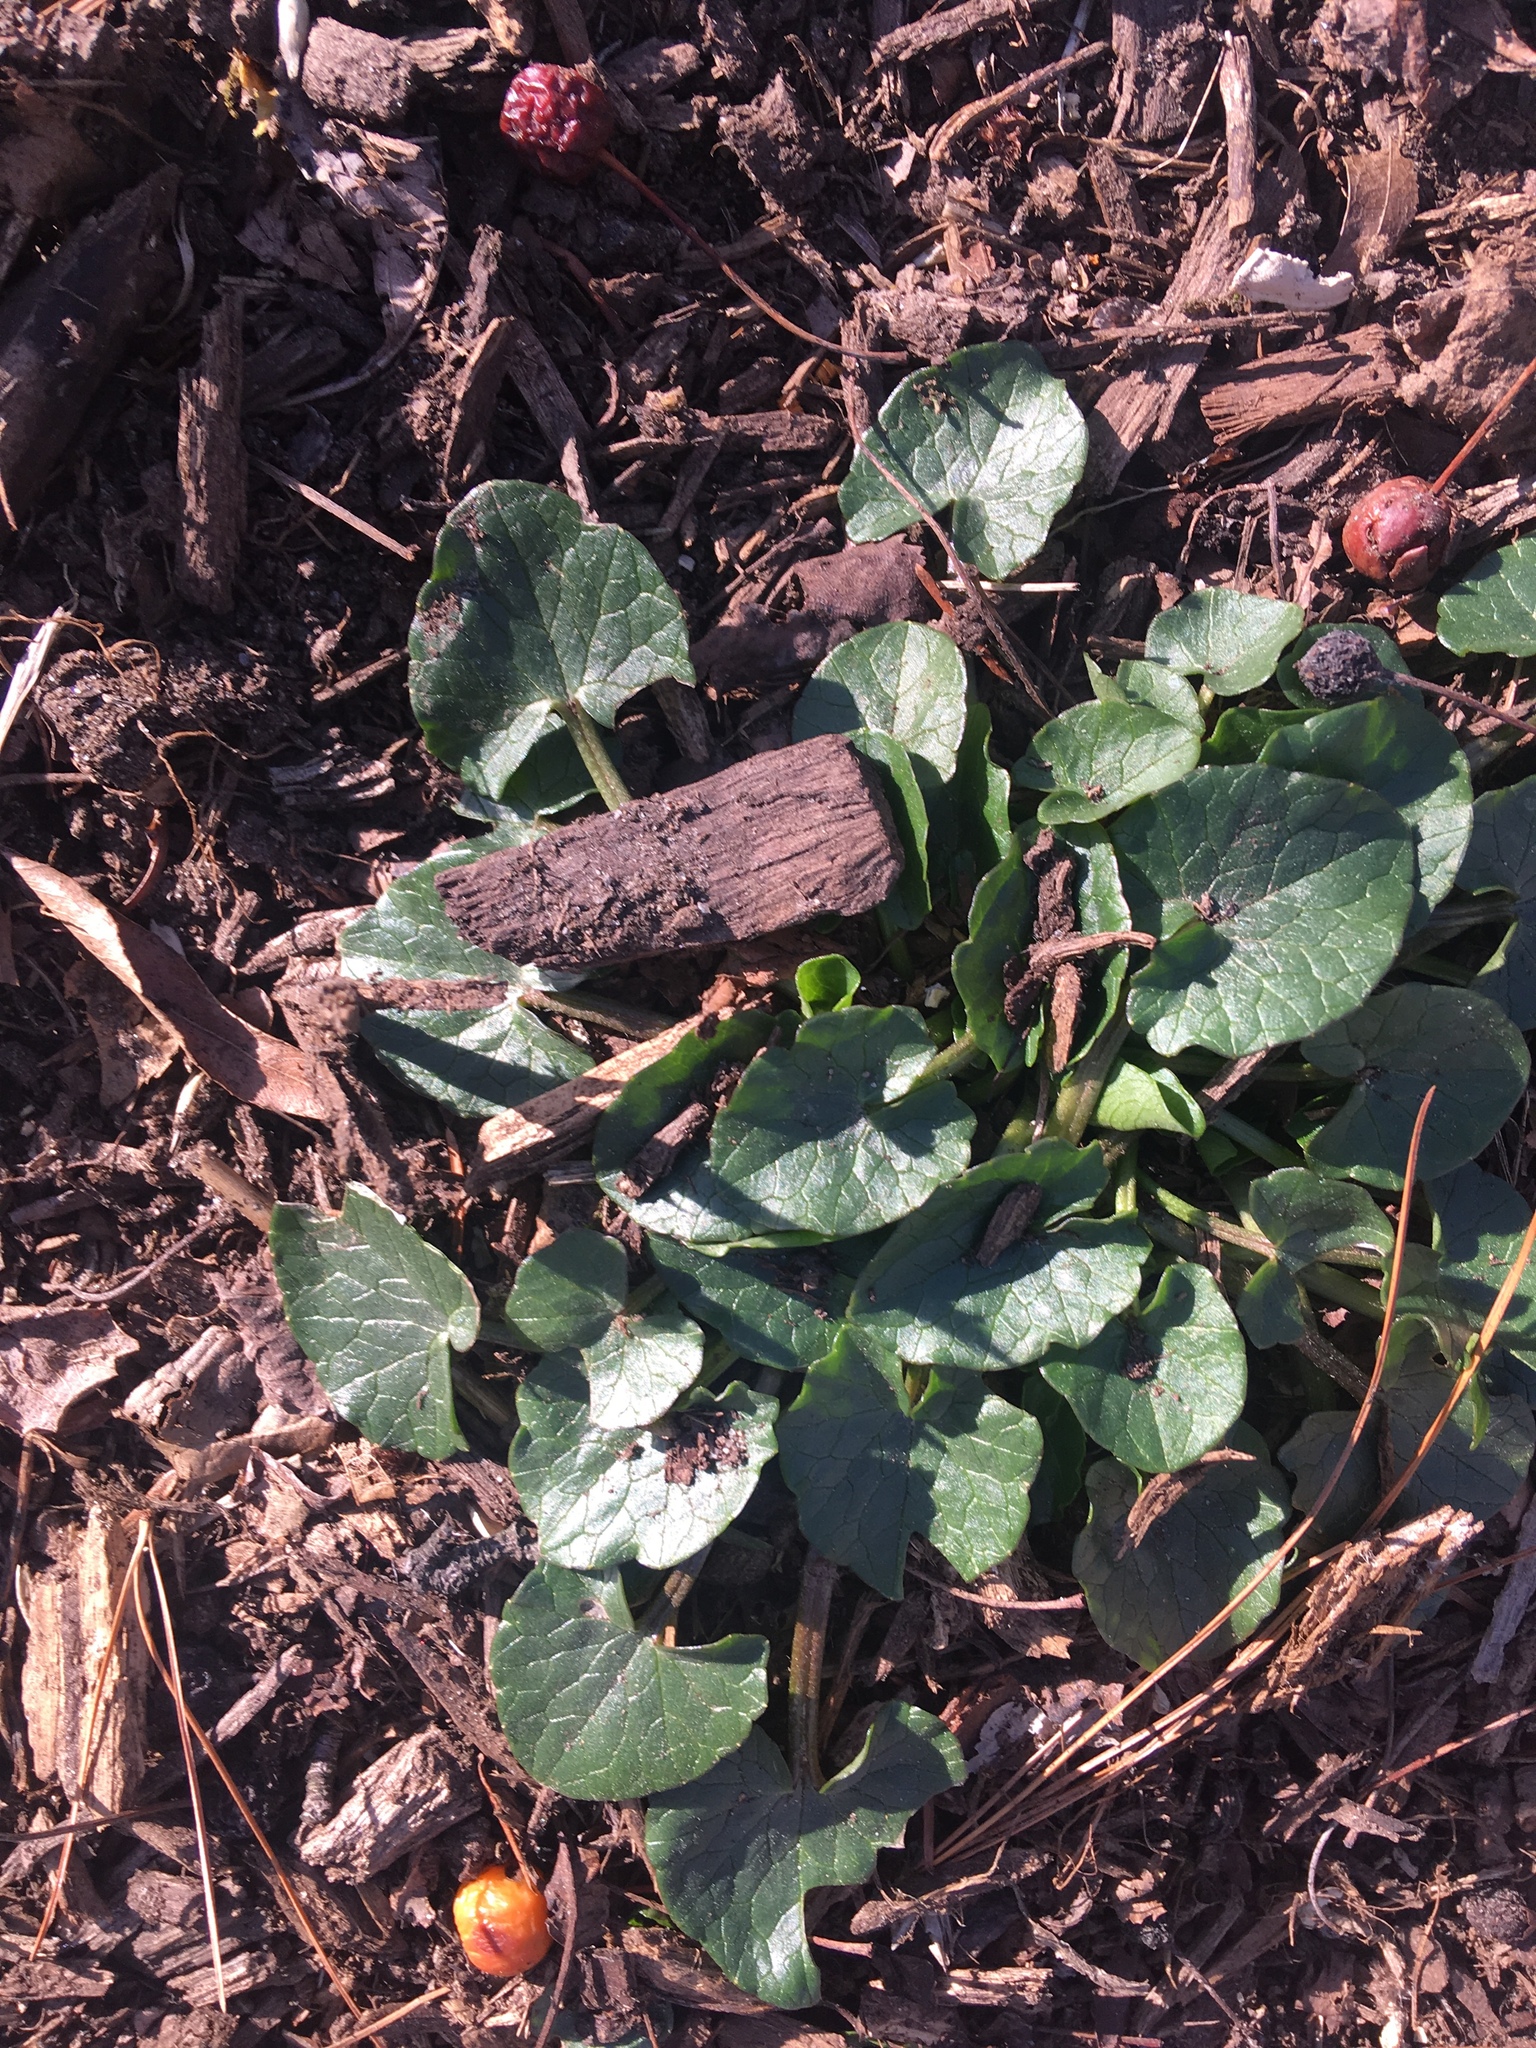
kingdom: Plantae
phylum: Tracheophyta
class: Magnoliopsida
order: Ranunculales
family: Ranunculaceae
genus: Ficaria
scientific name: Ficaria verna
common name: Lesser celandine
